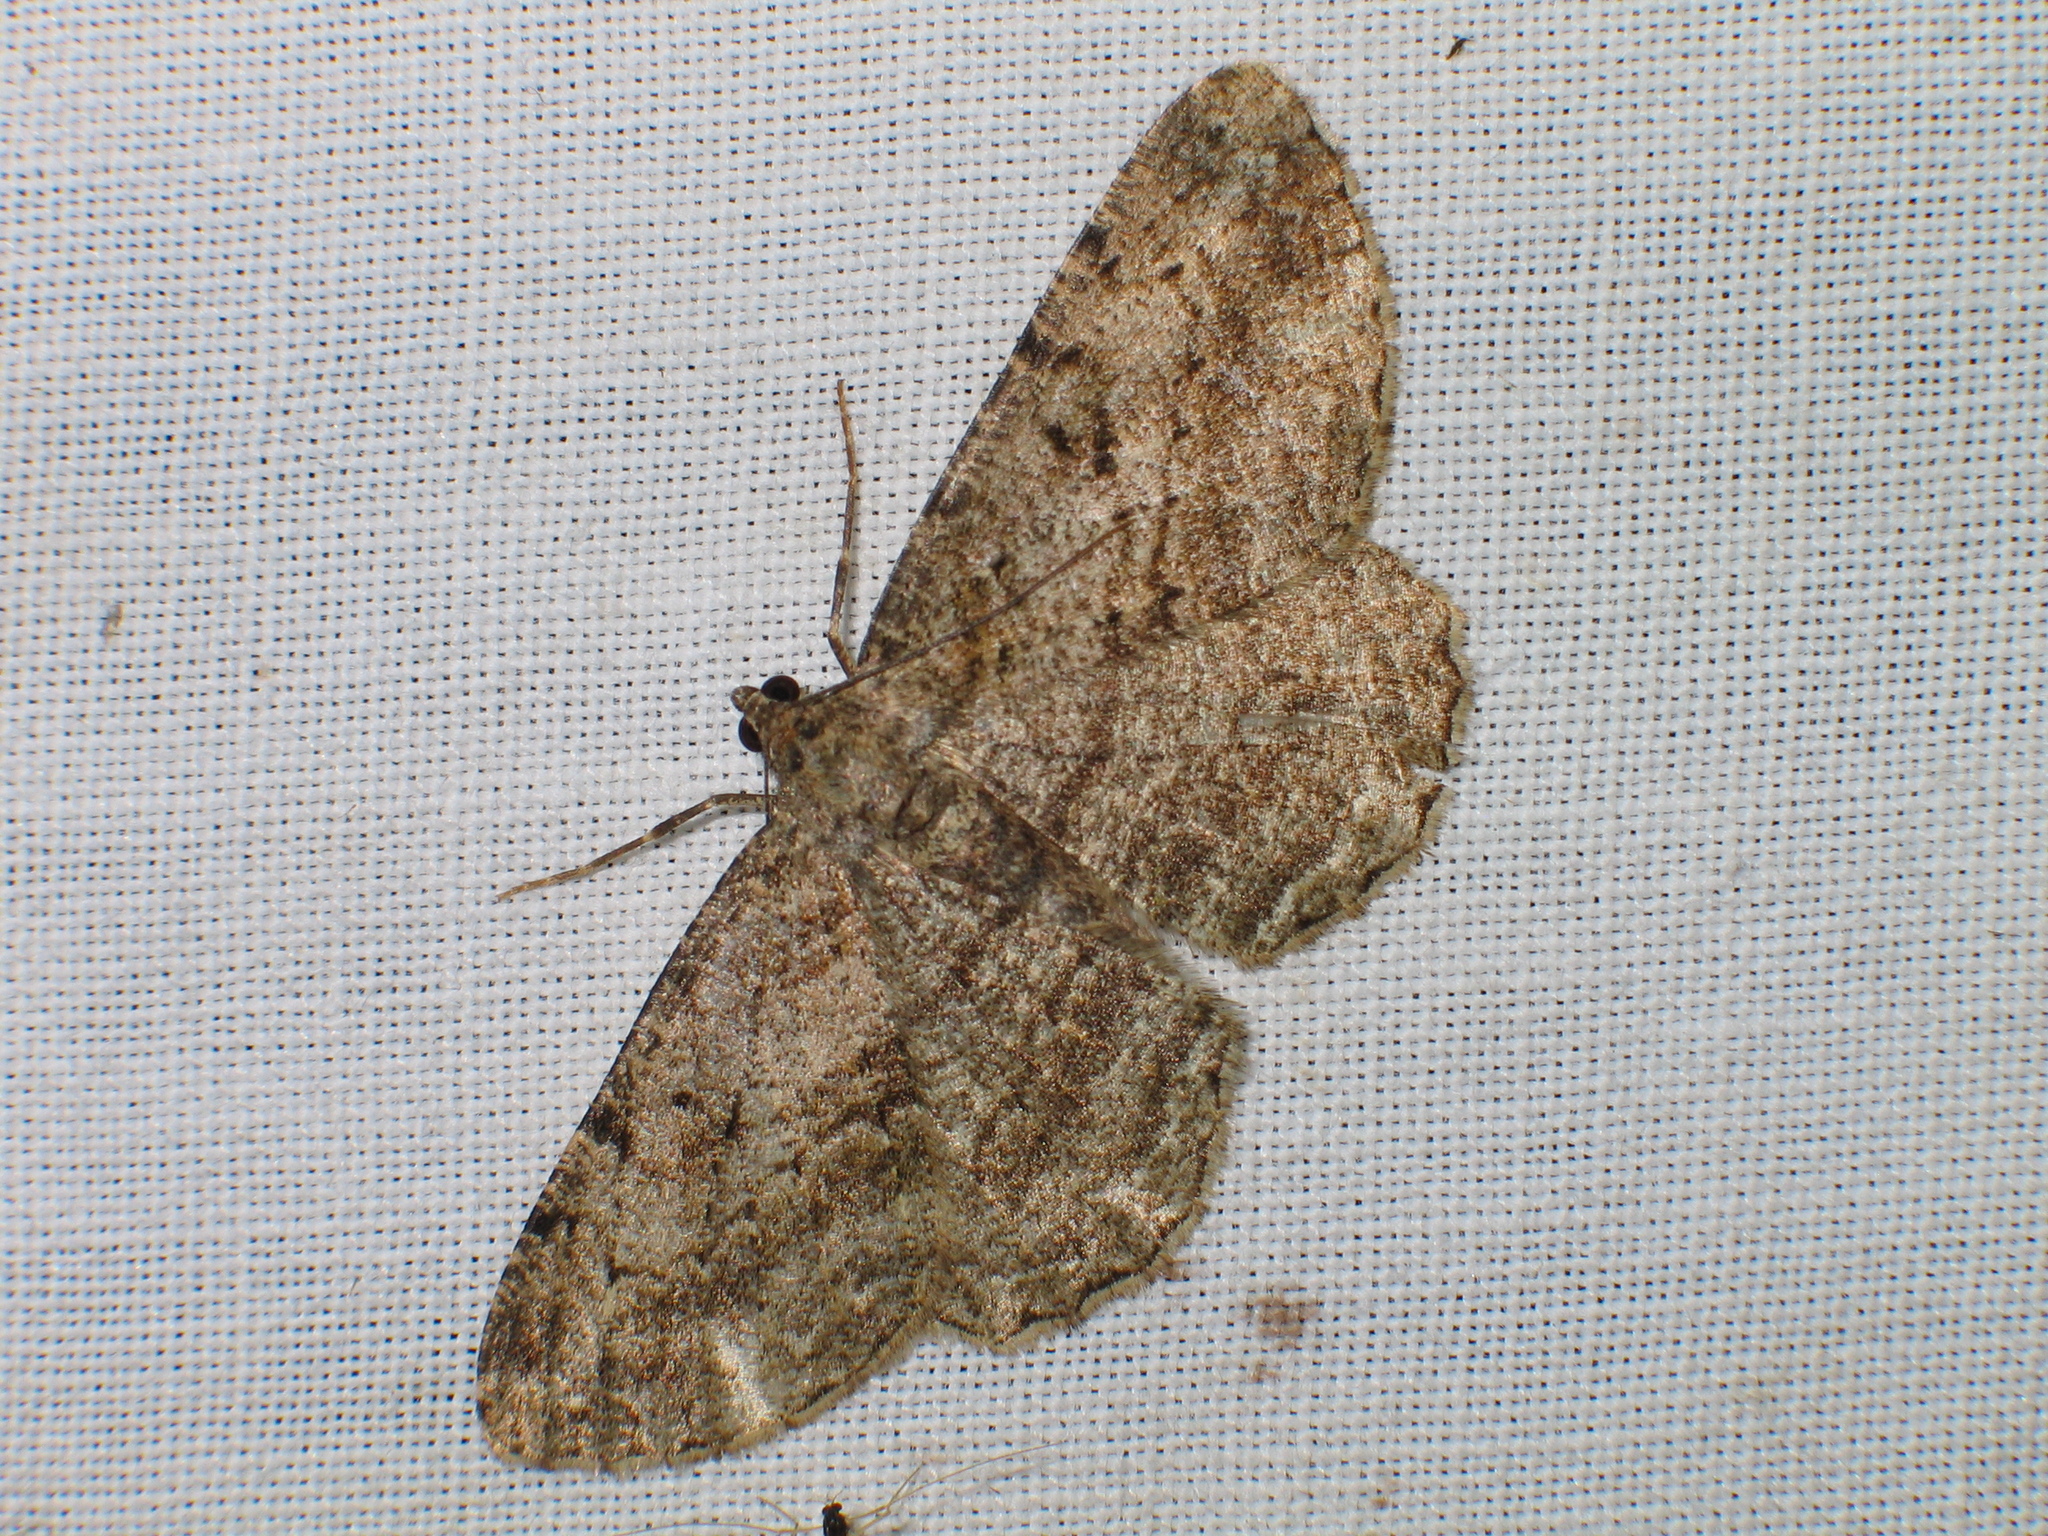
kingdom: Animalia
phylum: Arthropoda
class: Insecta
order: Lepidoptera
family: Geometridae
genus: Peribatodes
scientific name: Peribatodes rhomboidaria
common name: Willow beauty
